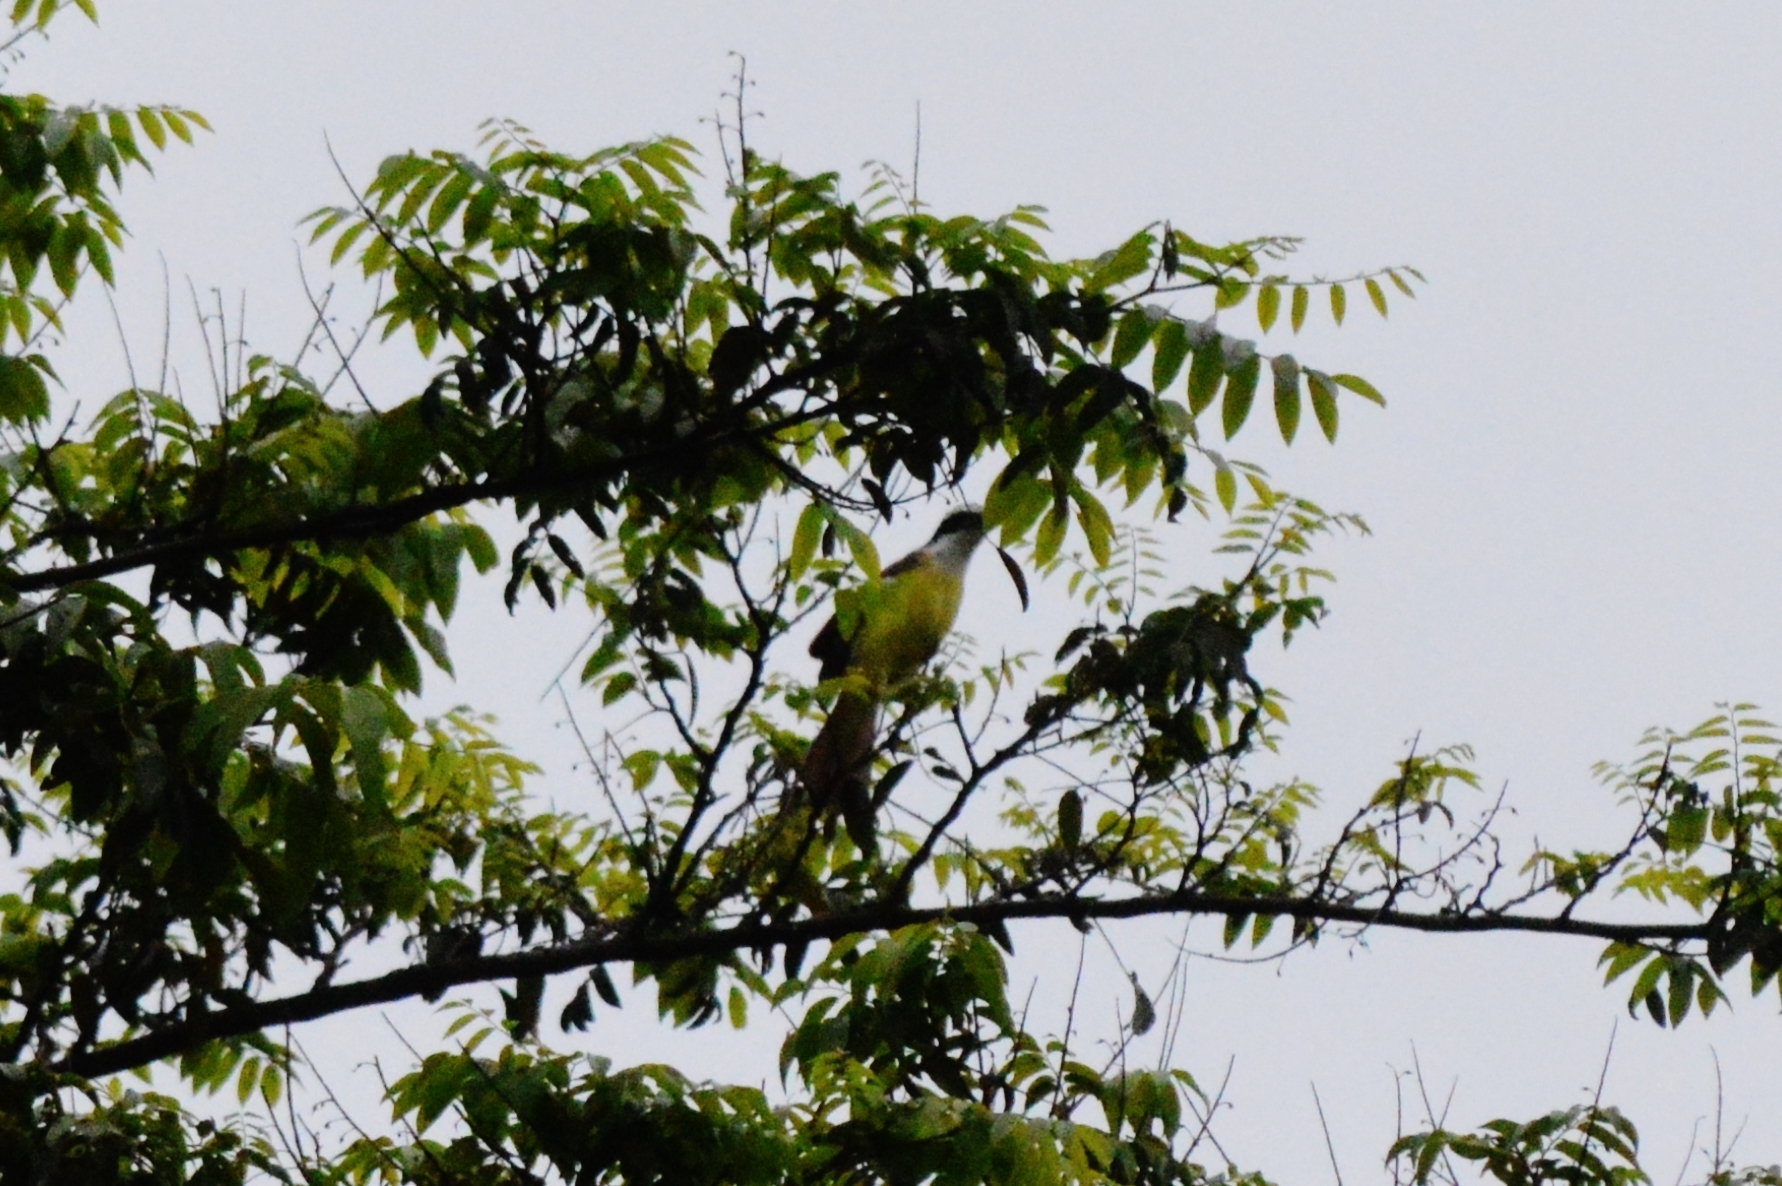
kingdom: Animalia
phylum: Chordata
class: Aves
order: Passeriformes
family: Tyrannidae
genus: Pitangus
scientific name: Pitangus sulphuratus
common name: Great kiskadee
